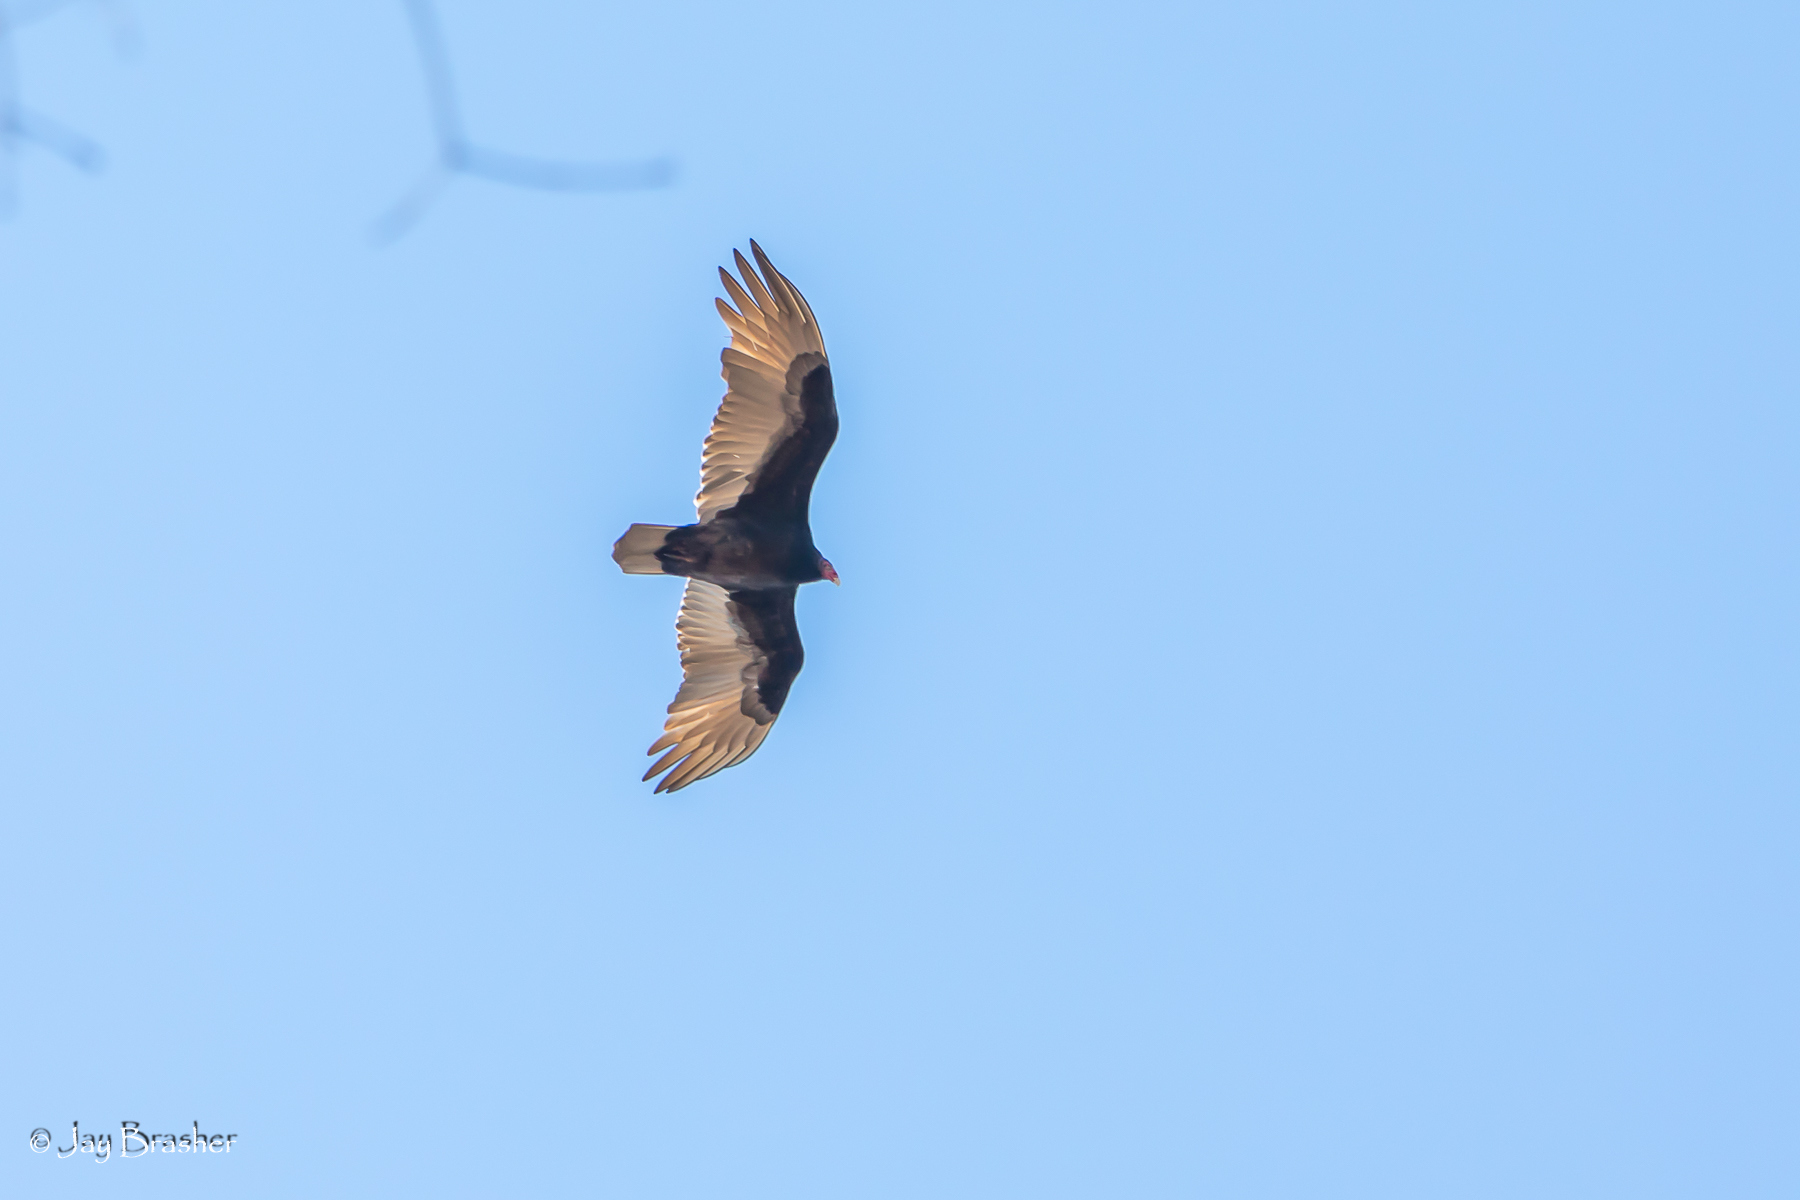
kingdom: Animalia
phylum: Chordata
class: Aves
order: Accipitriformes
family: Cathartidae
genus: Cathartes
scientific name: Cathartes aura
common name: Turkey vulture
